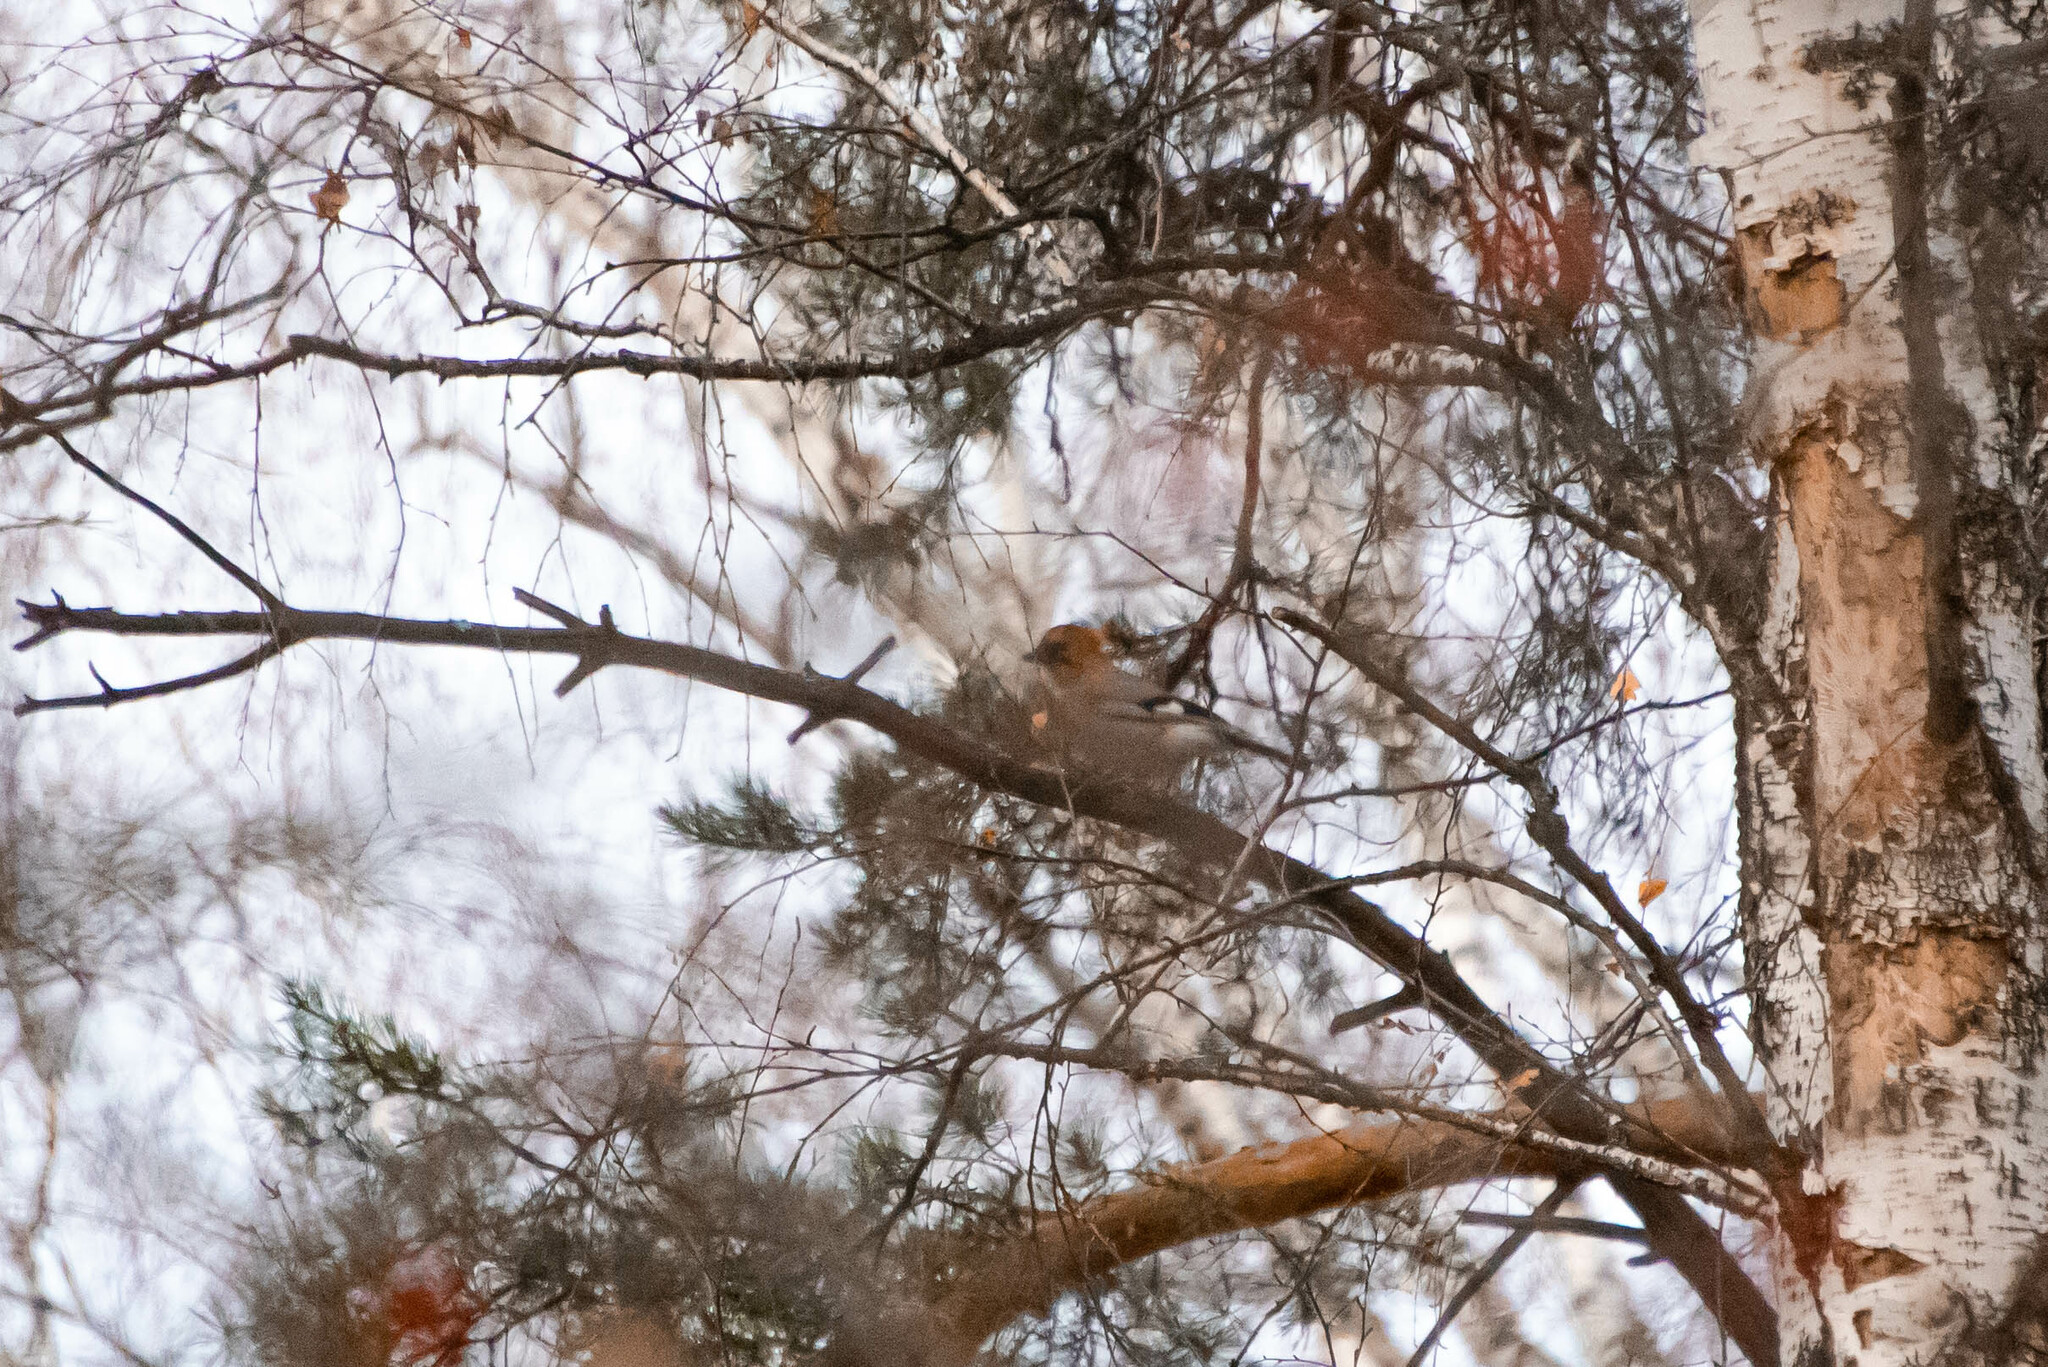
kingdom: Animalia
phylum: Chordata
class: Aves
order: Passeriformes
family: Corvidae
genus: Garrulus
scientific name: Garrulus glandarius
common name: Eurasian jay
